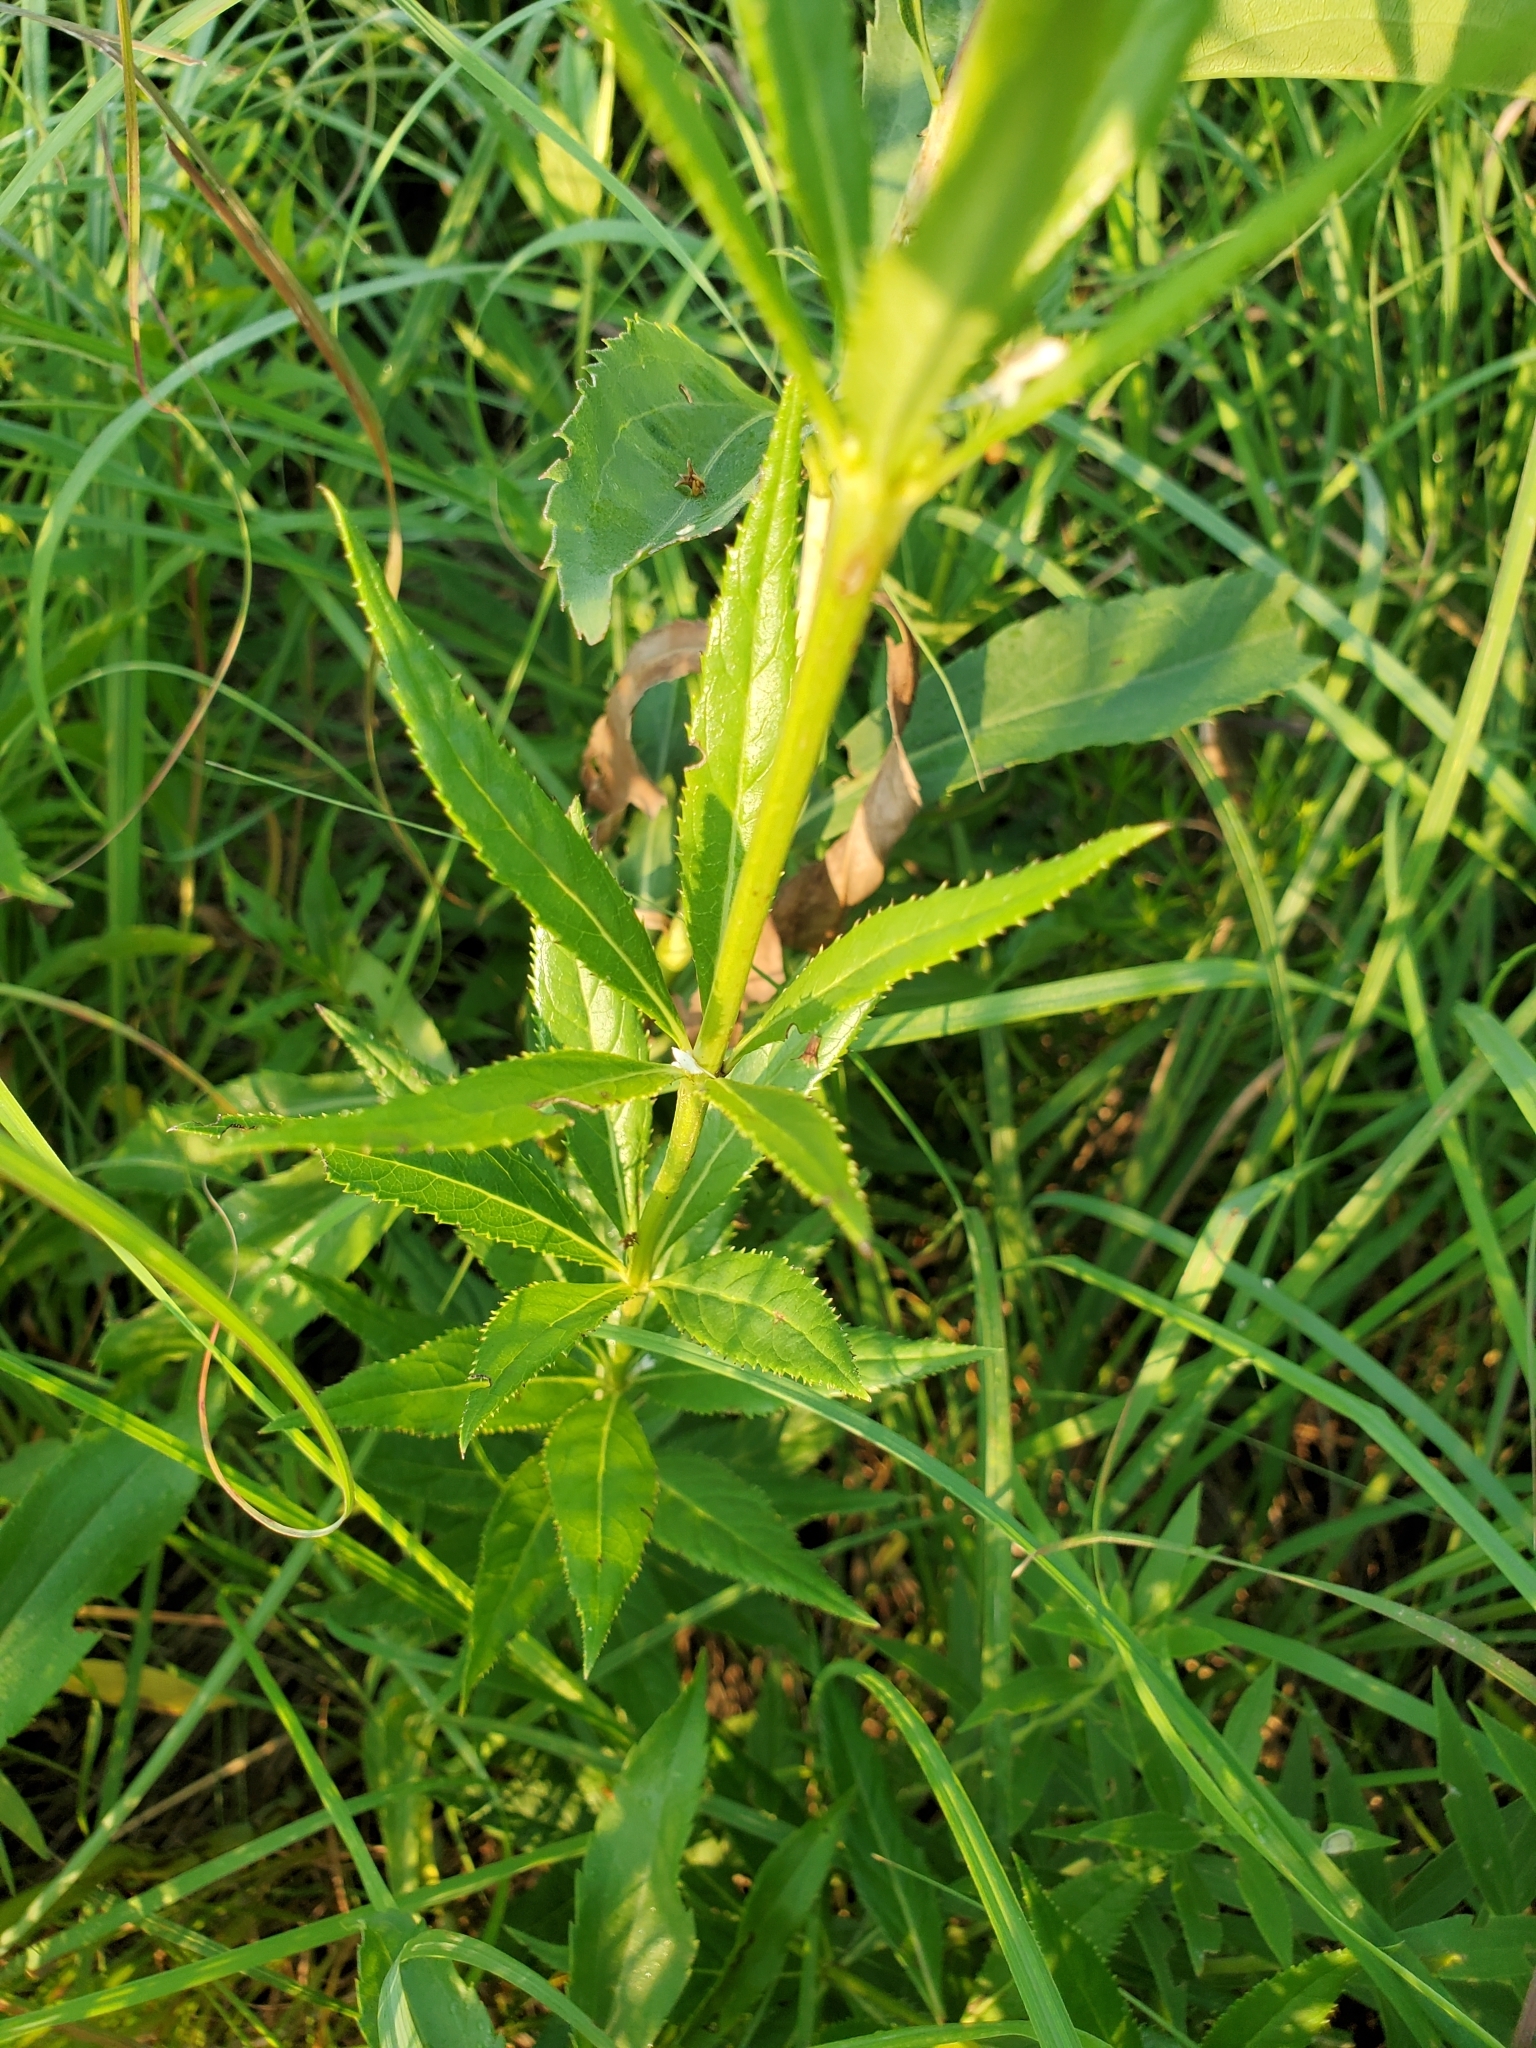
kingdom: Plantae
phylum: Tracheophyta
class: Magnoliopsida
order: Lamiales
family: Plantaginaceae
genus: Veronicastrum
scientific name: Veronicastrum virginicum
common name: Blackroot
